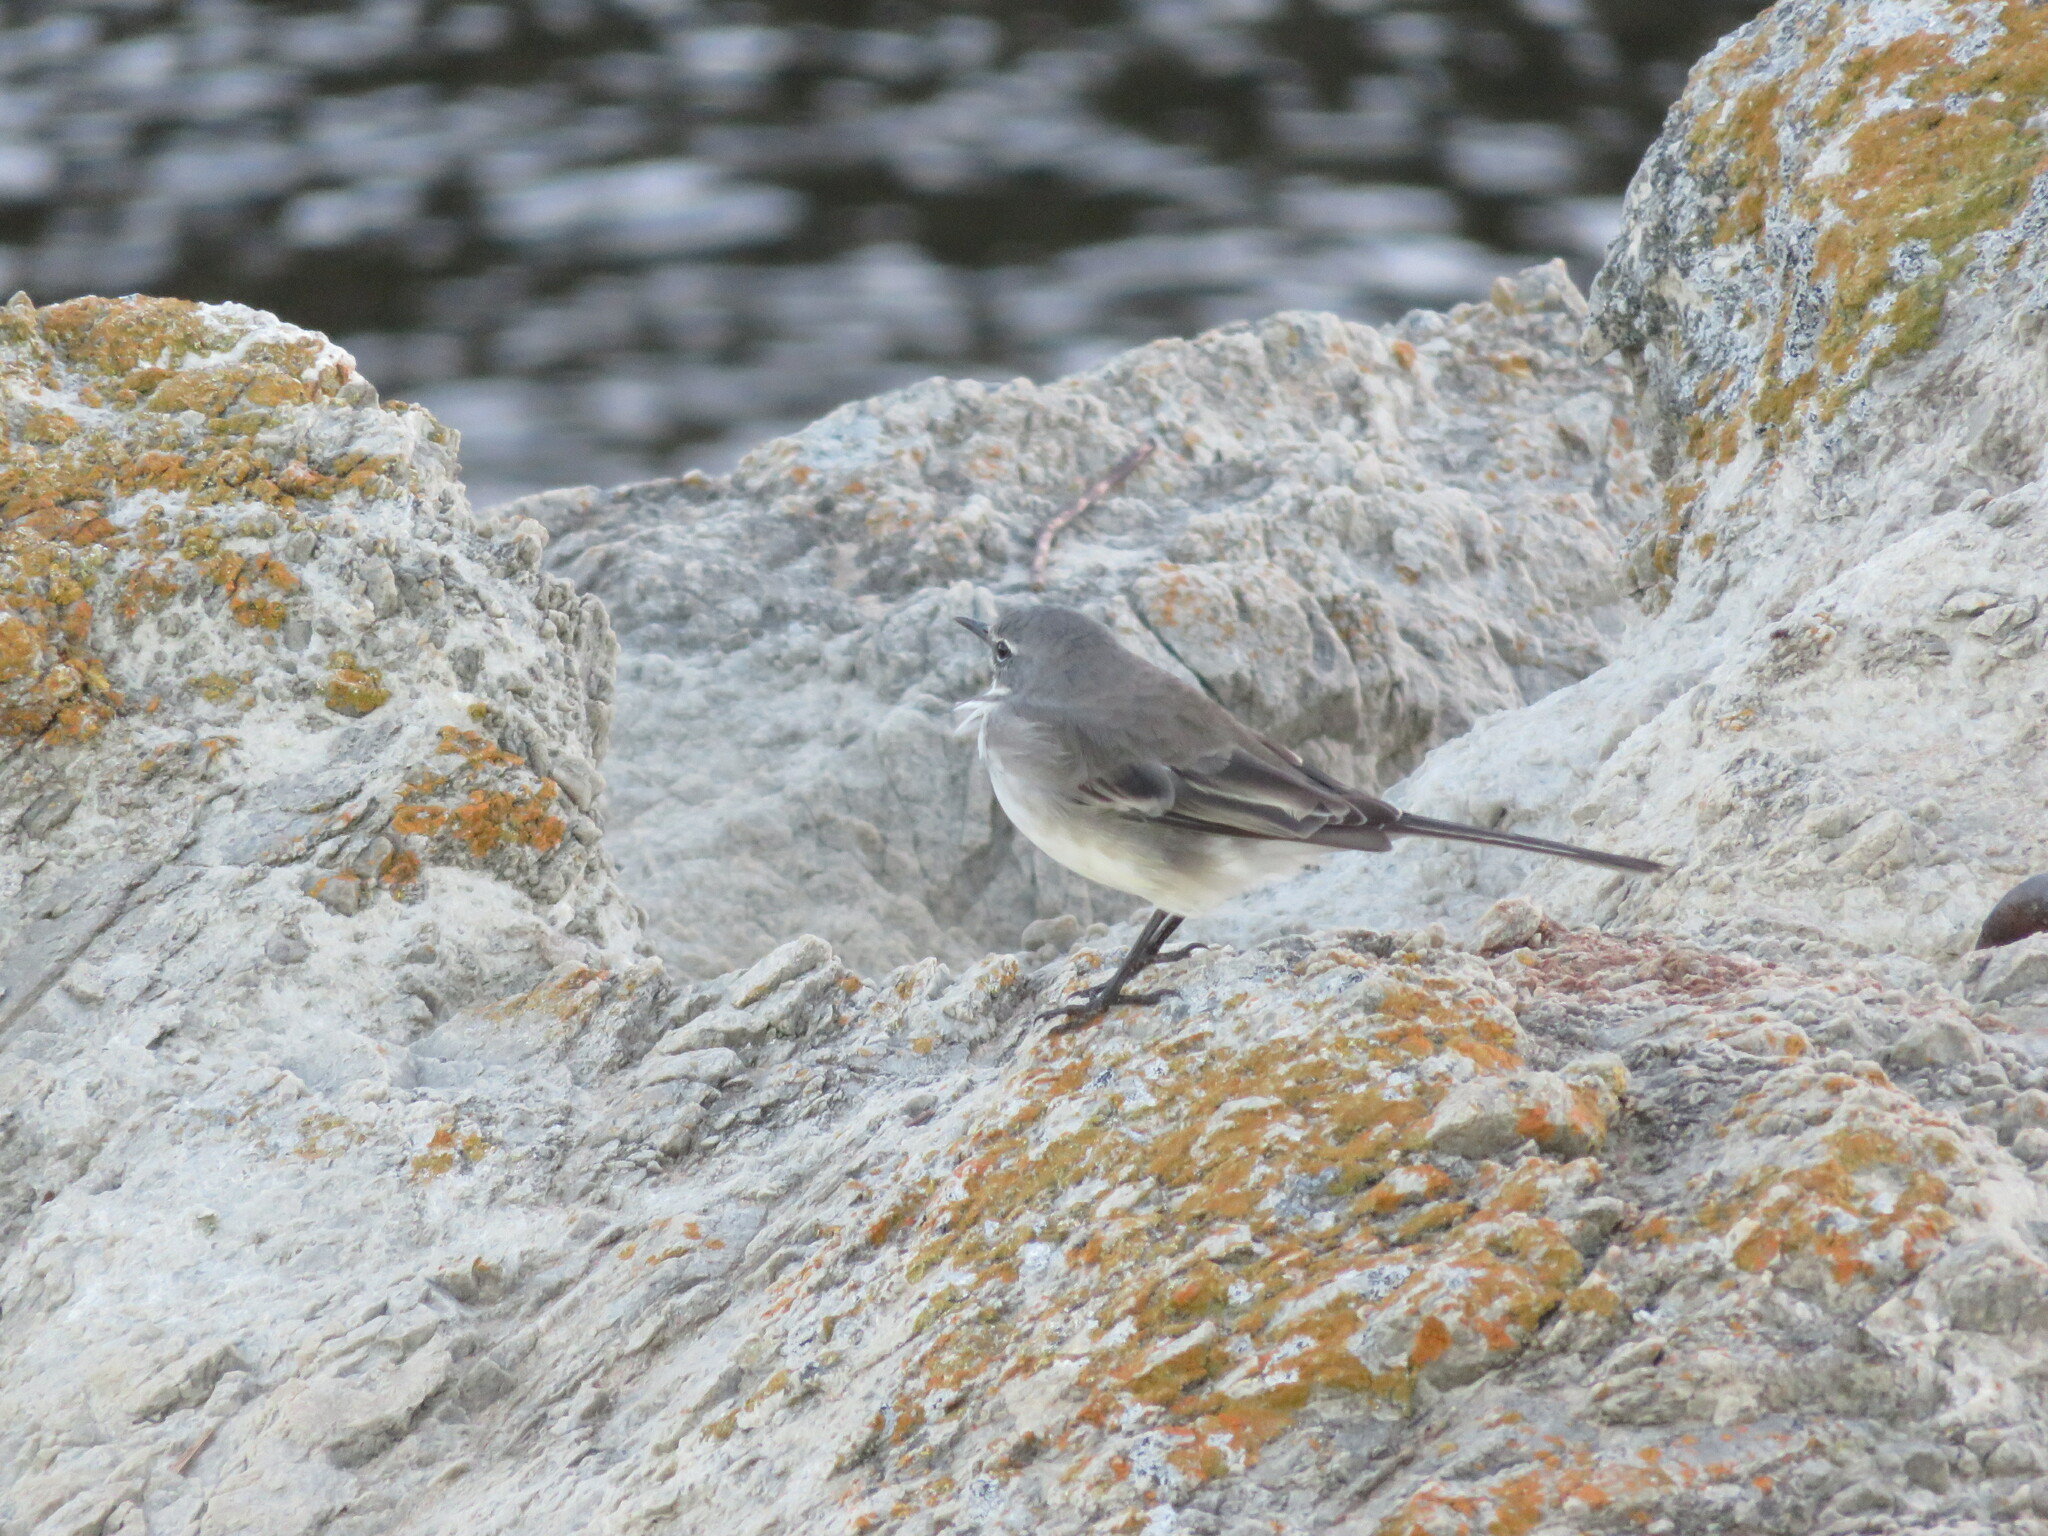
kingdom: Animalia
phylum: Chordata
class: Aves
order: Passeriformes
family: Motacillidae
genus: Motacilla
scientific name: Motacilla capensis
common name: Cape wagtail
